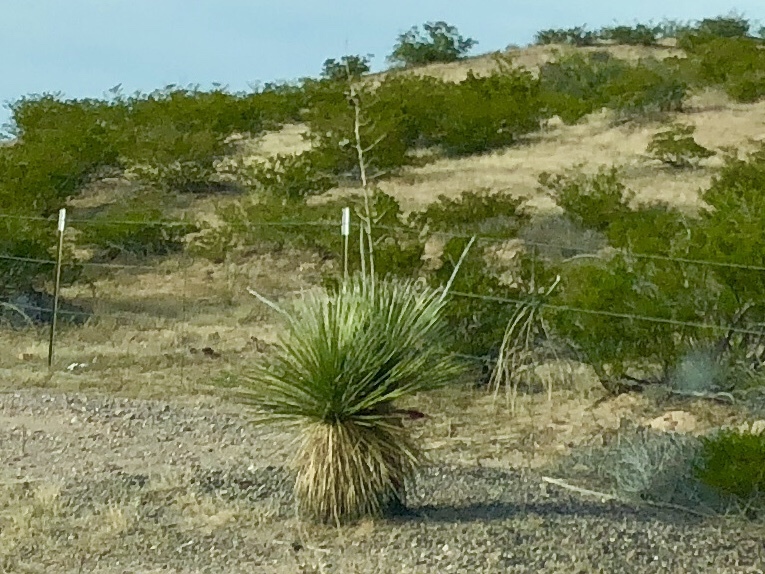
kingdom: Plantae
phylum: Tracheophyta
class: Liliopsida
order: Asparagales
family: Asparagaceae
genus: Yucca
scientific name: Yucca elata
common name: Palmella
